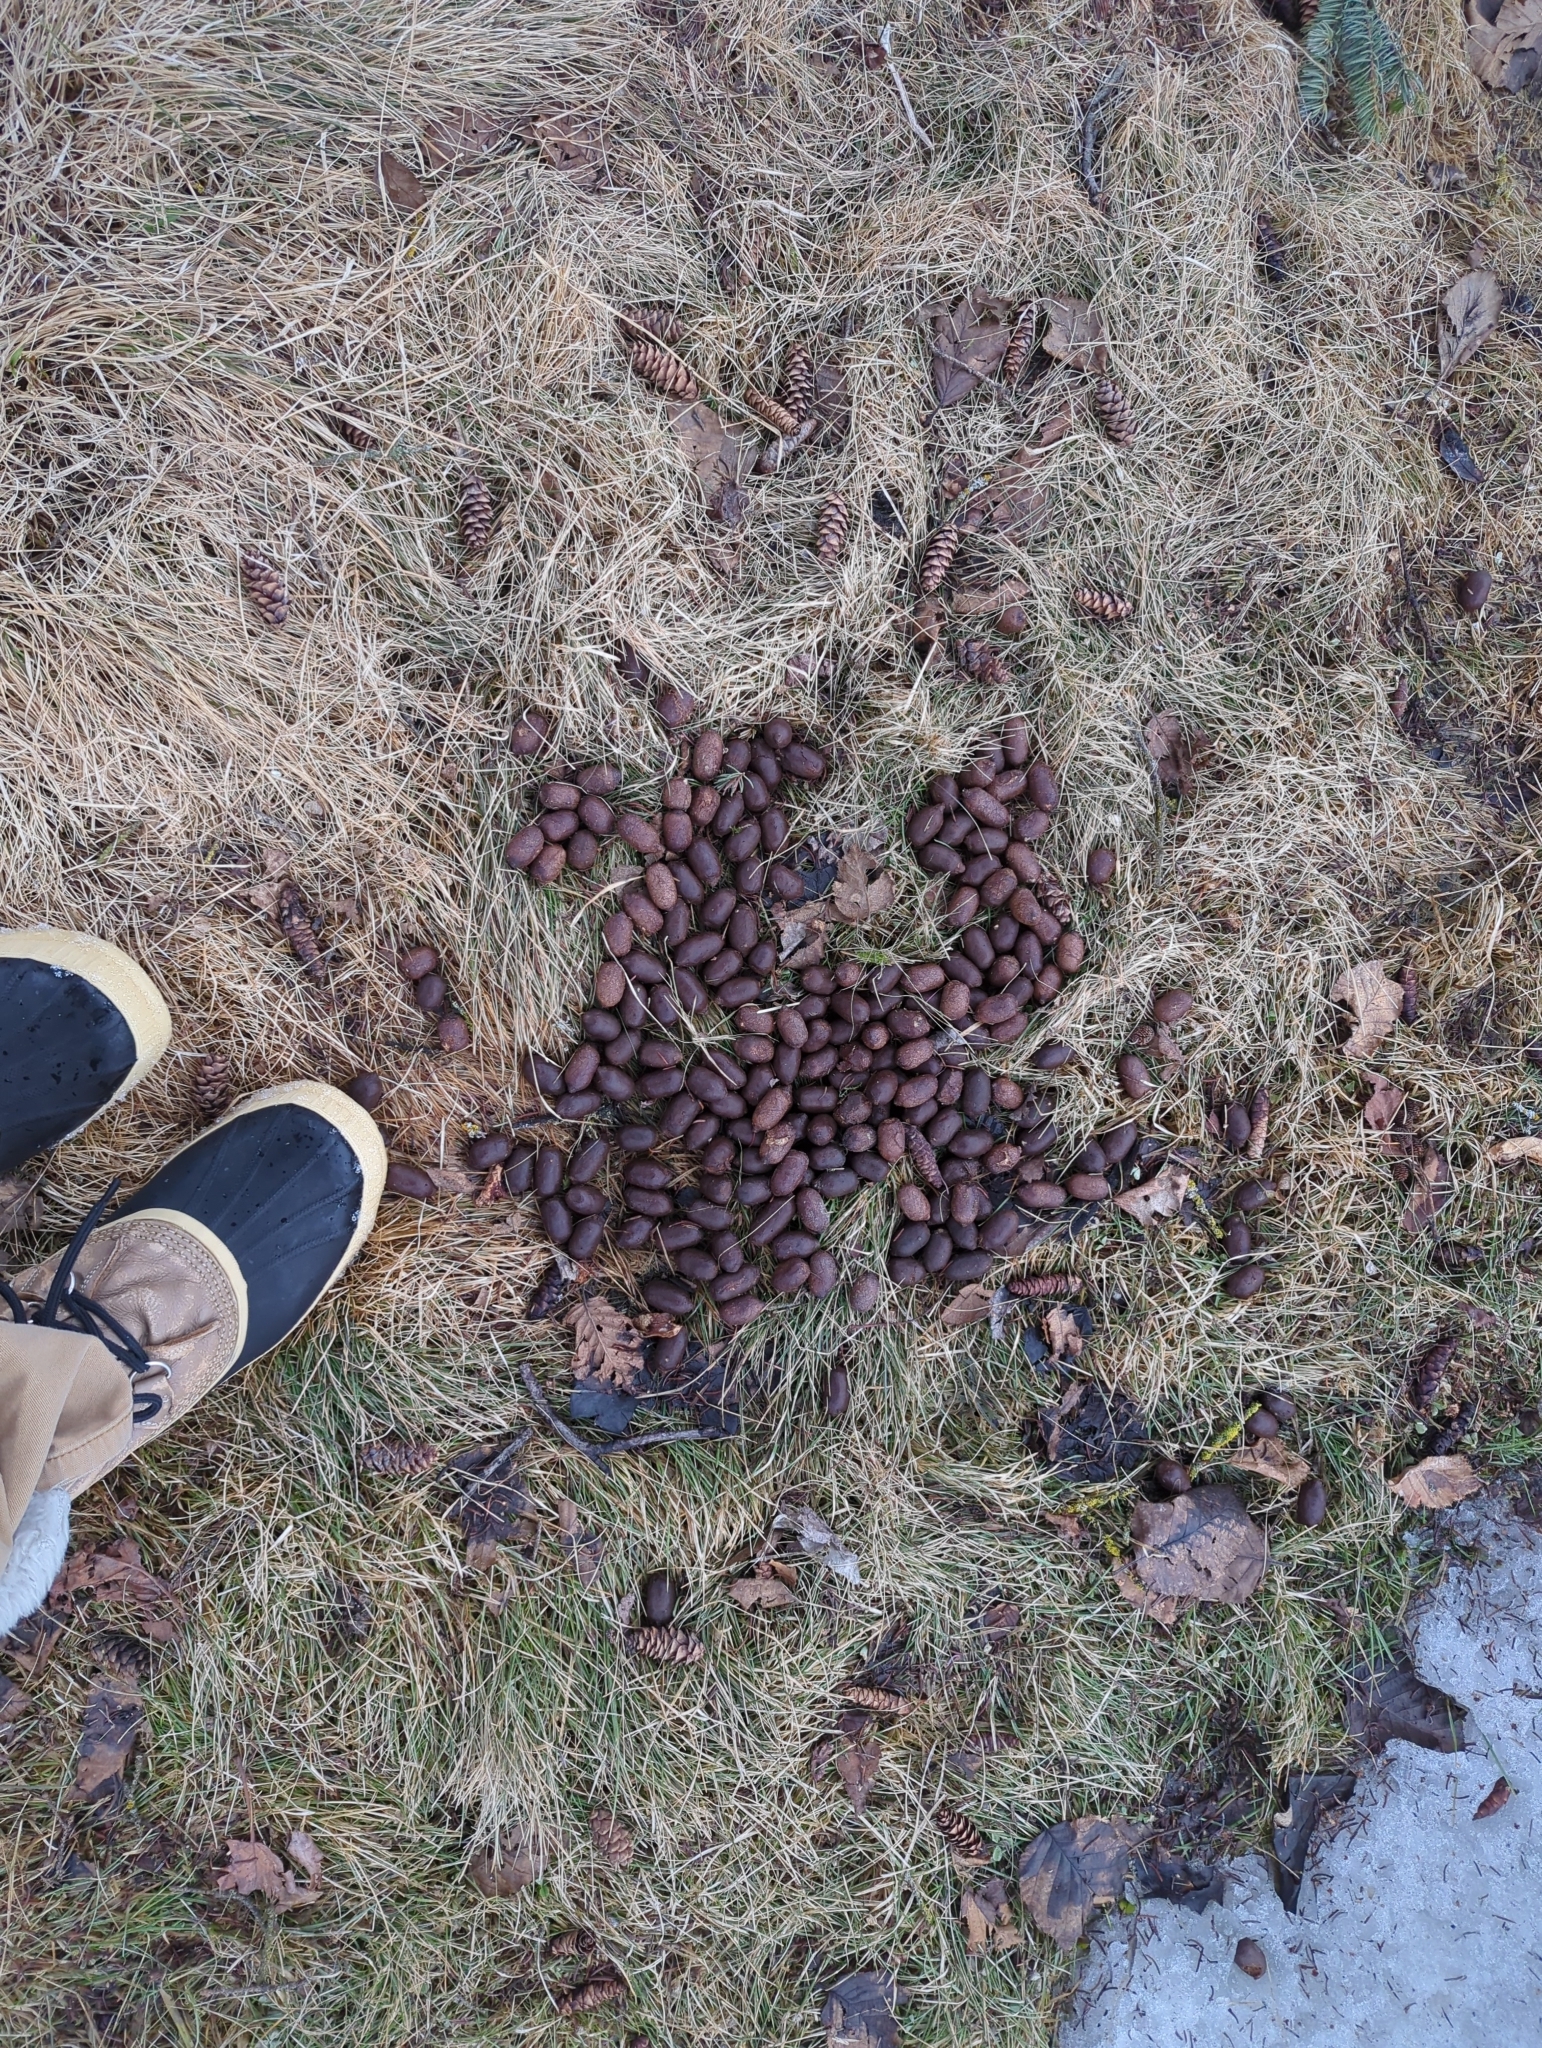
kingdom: Animalia
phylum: Chordata
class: Mammalia
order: Artiodactyla
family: Cervidae
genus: Alces
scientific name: Alces alces
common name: Moose
